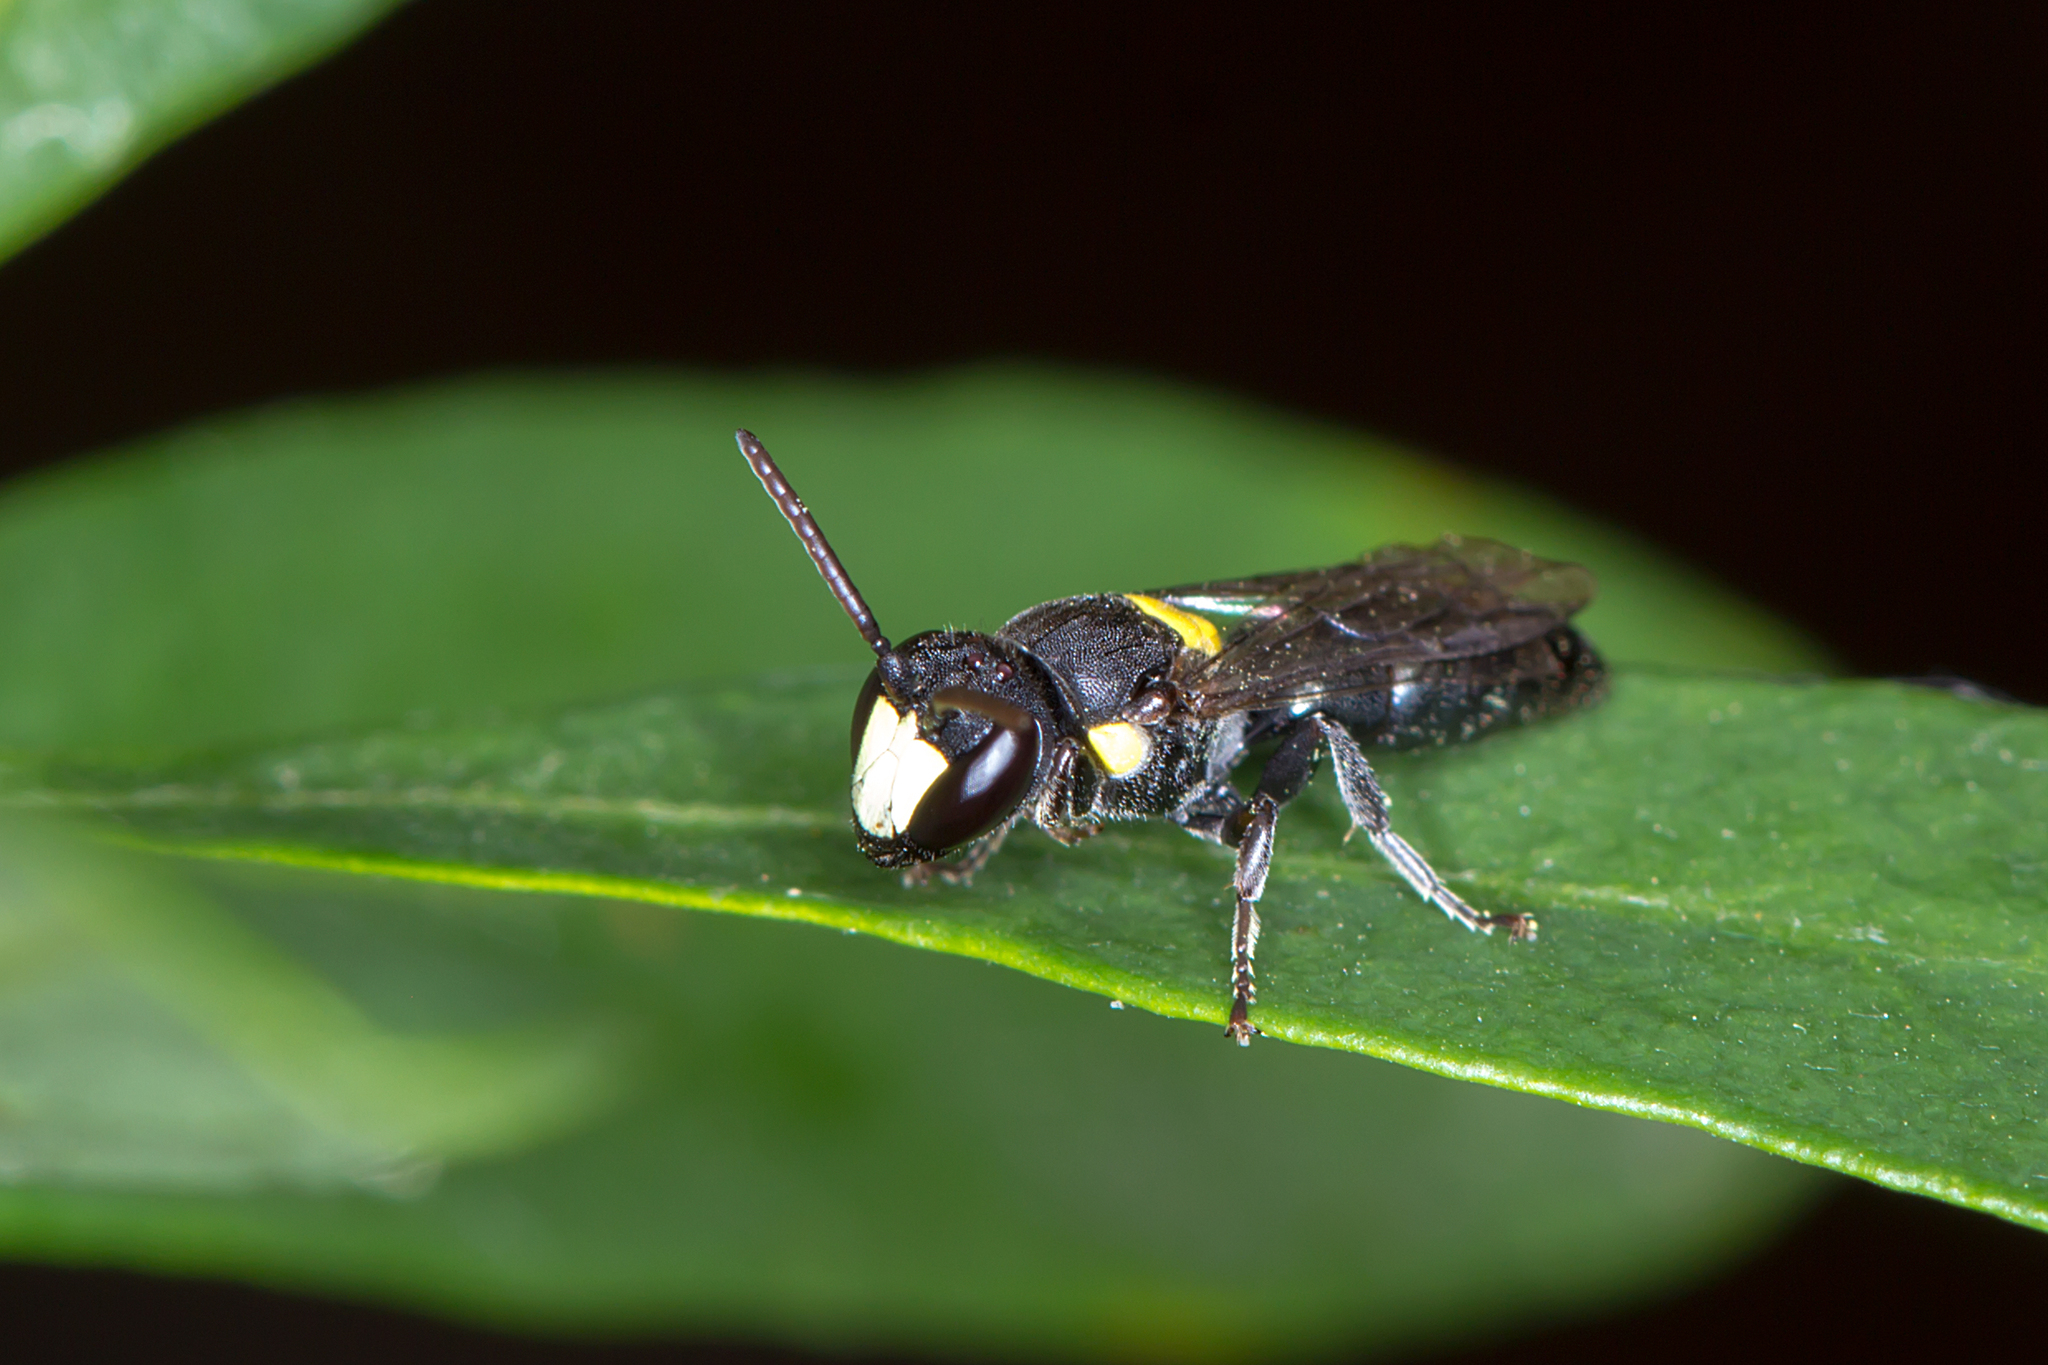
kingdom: Animalia
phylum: Arthropoda
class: Insecta
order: Hymenoptera
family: Colletidae
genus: Hylaeus
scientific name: Hylaeus rotundiceps
